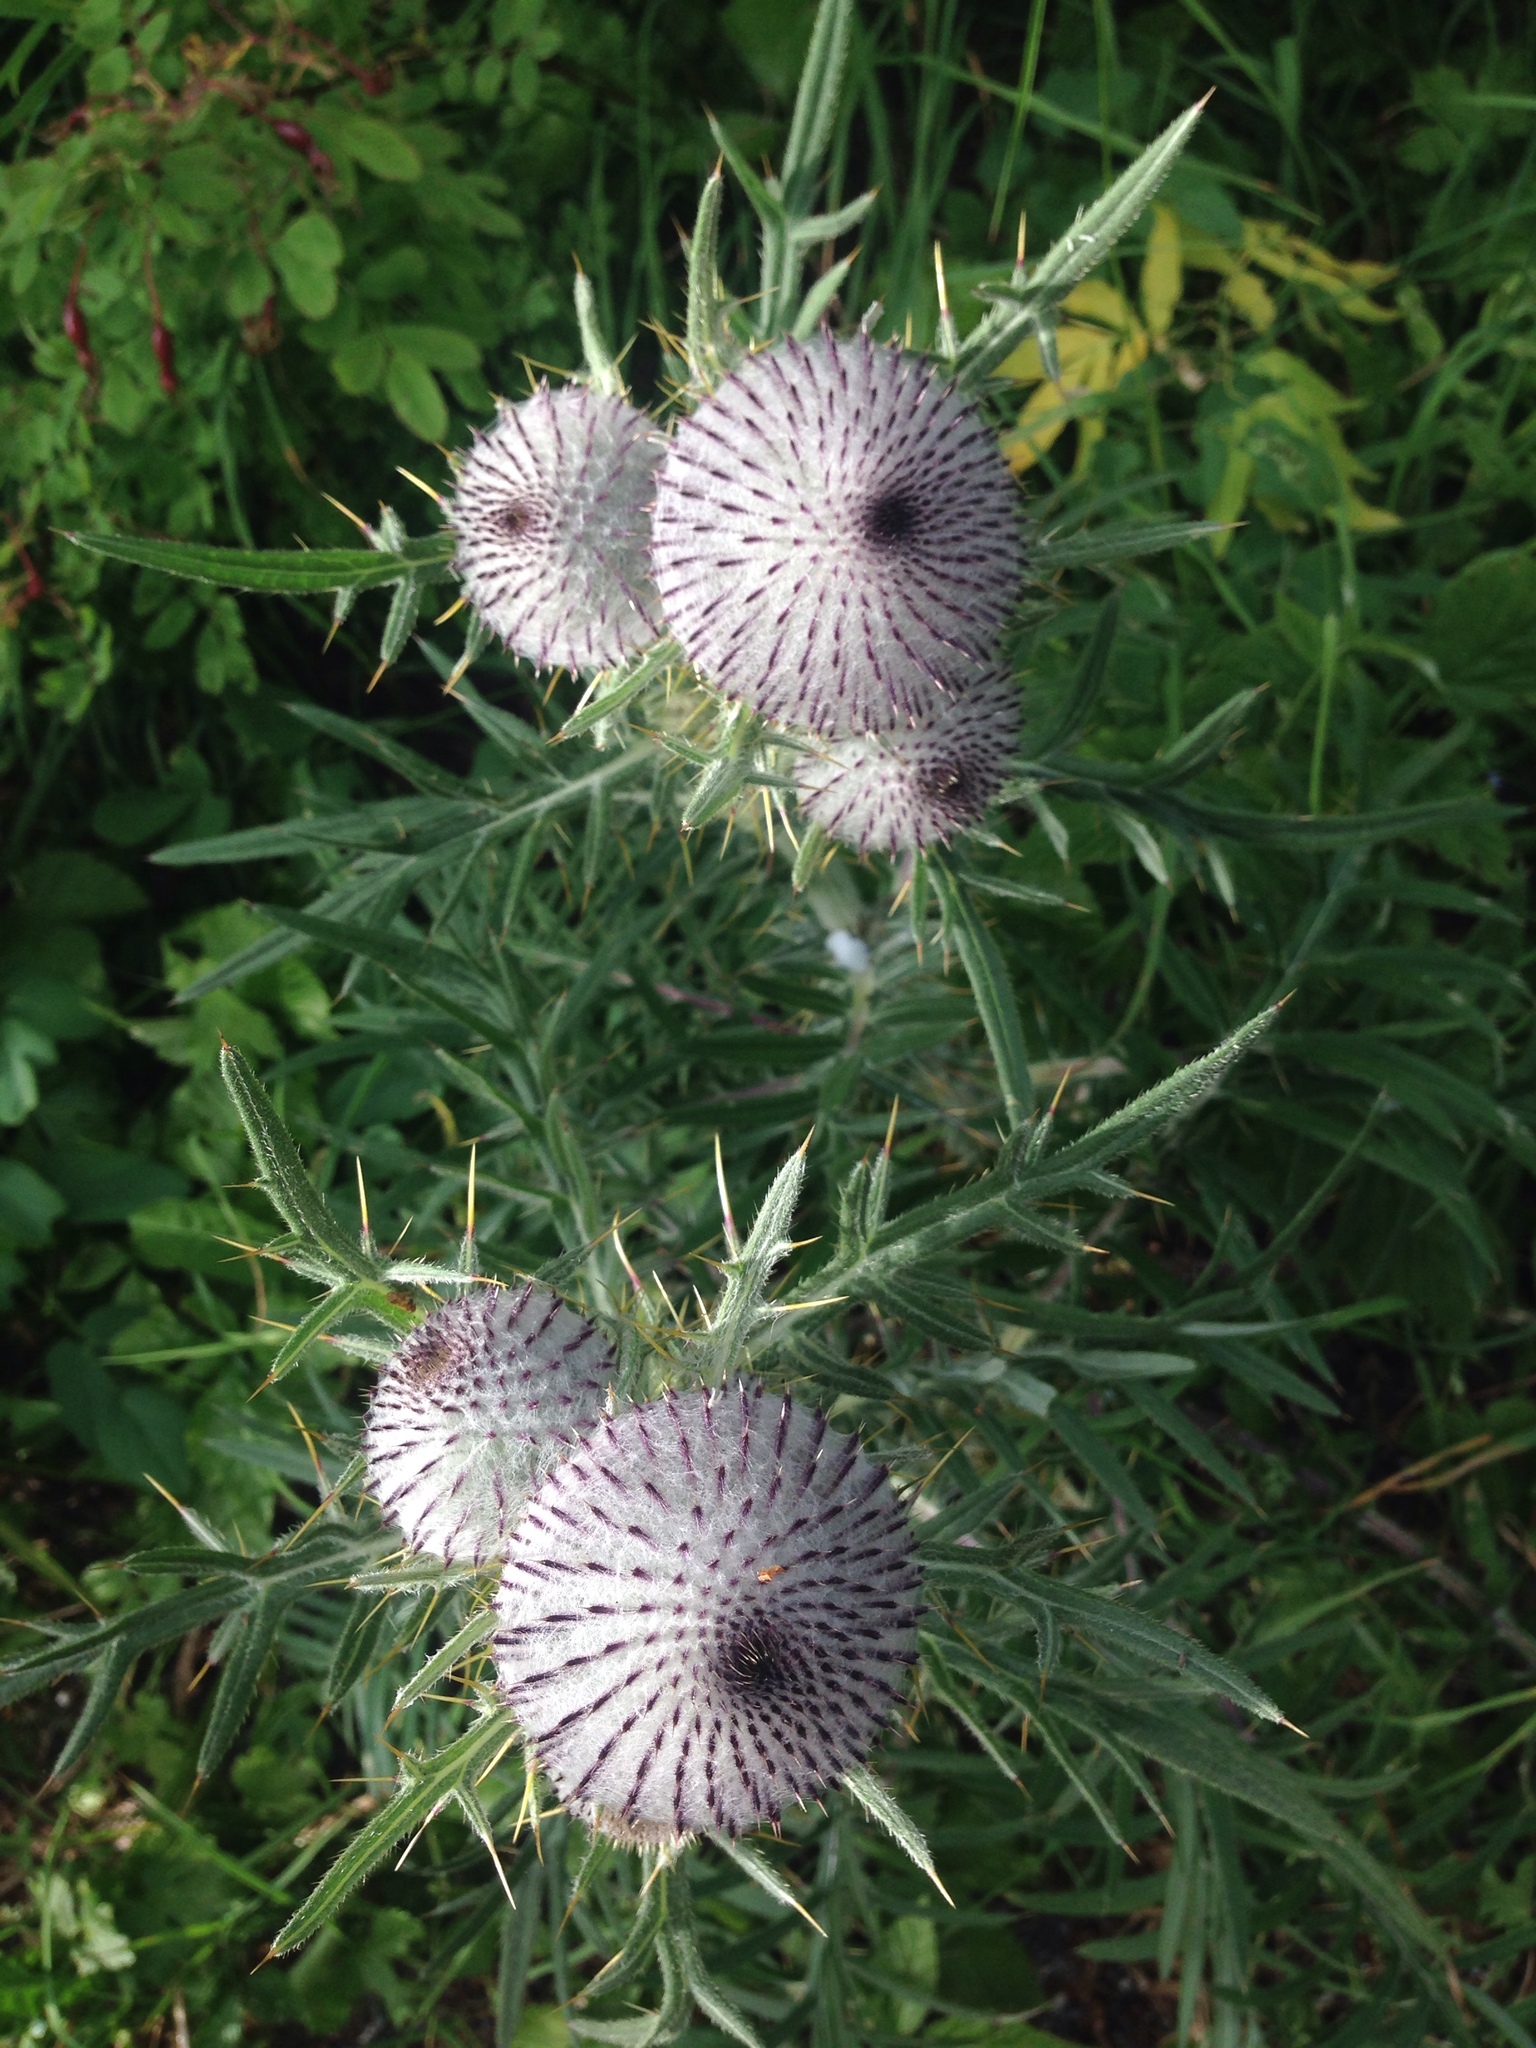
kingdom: Plantae
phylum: Tracheophyta
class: Magnoliopsida
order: Asterales
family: Asteraceae
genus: Lophiolepis
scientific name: Lophiolepis eriophora
